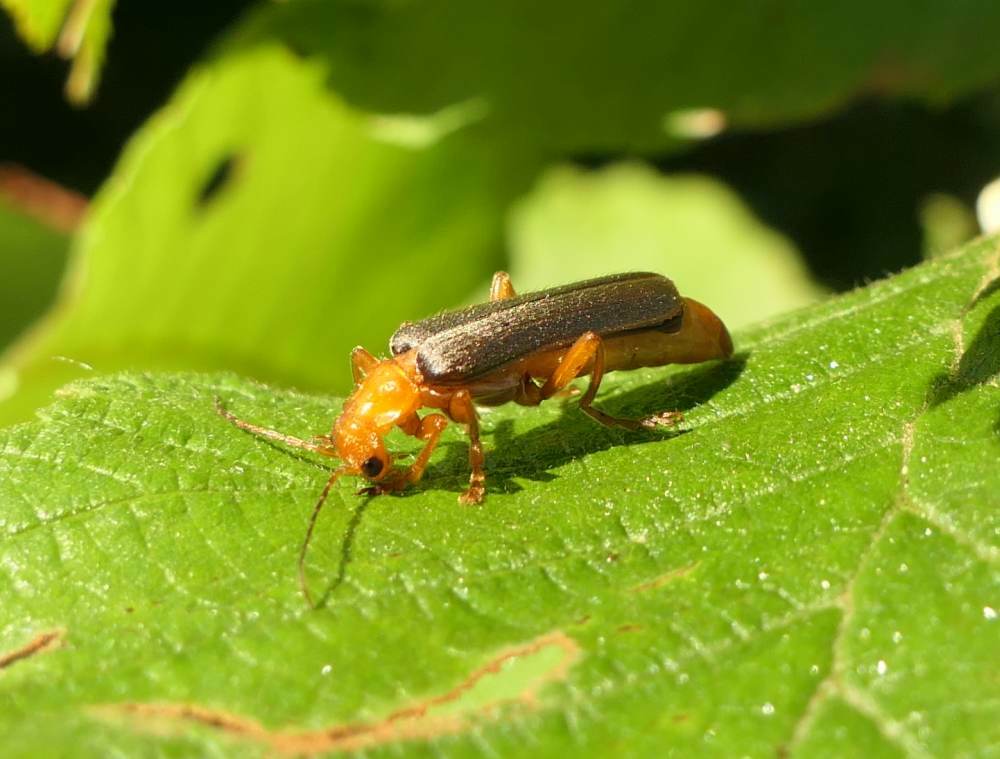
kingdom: Animalia
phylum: Arthropoda
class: Insecta
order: Coleoptera
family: Cantharidae
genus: Pacificanthia
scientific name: Pacificanthia rotundicollis
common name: Brown leatherwing beetle
